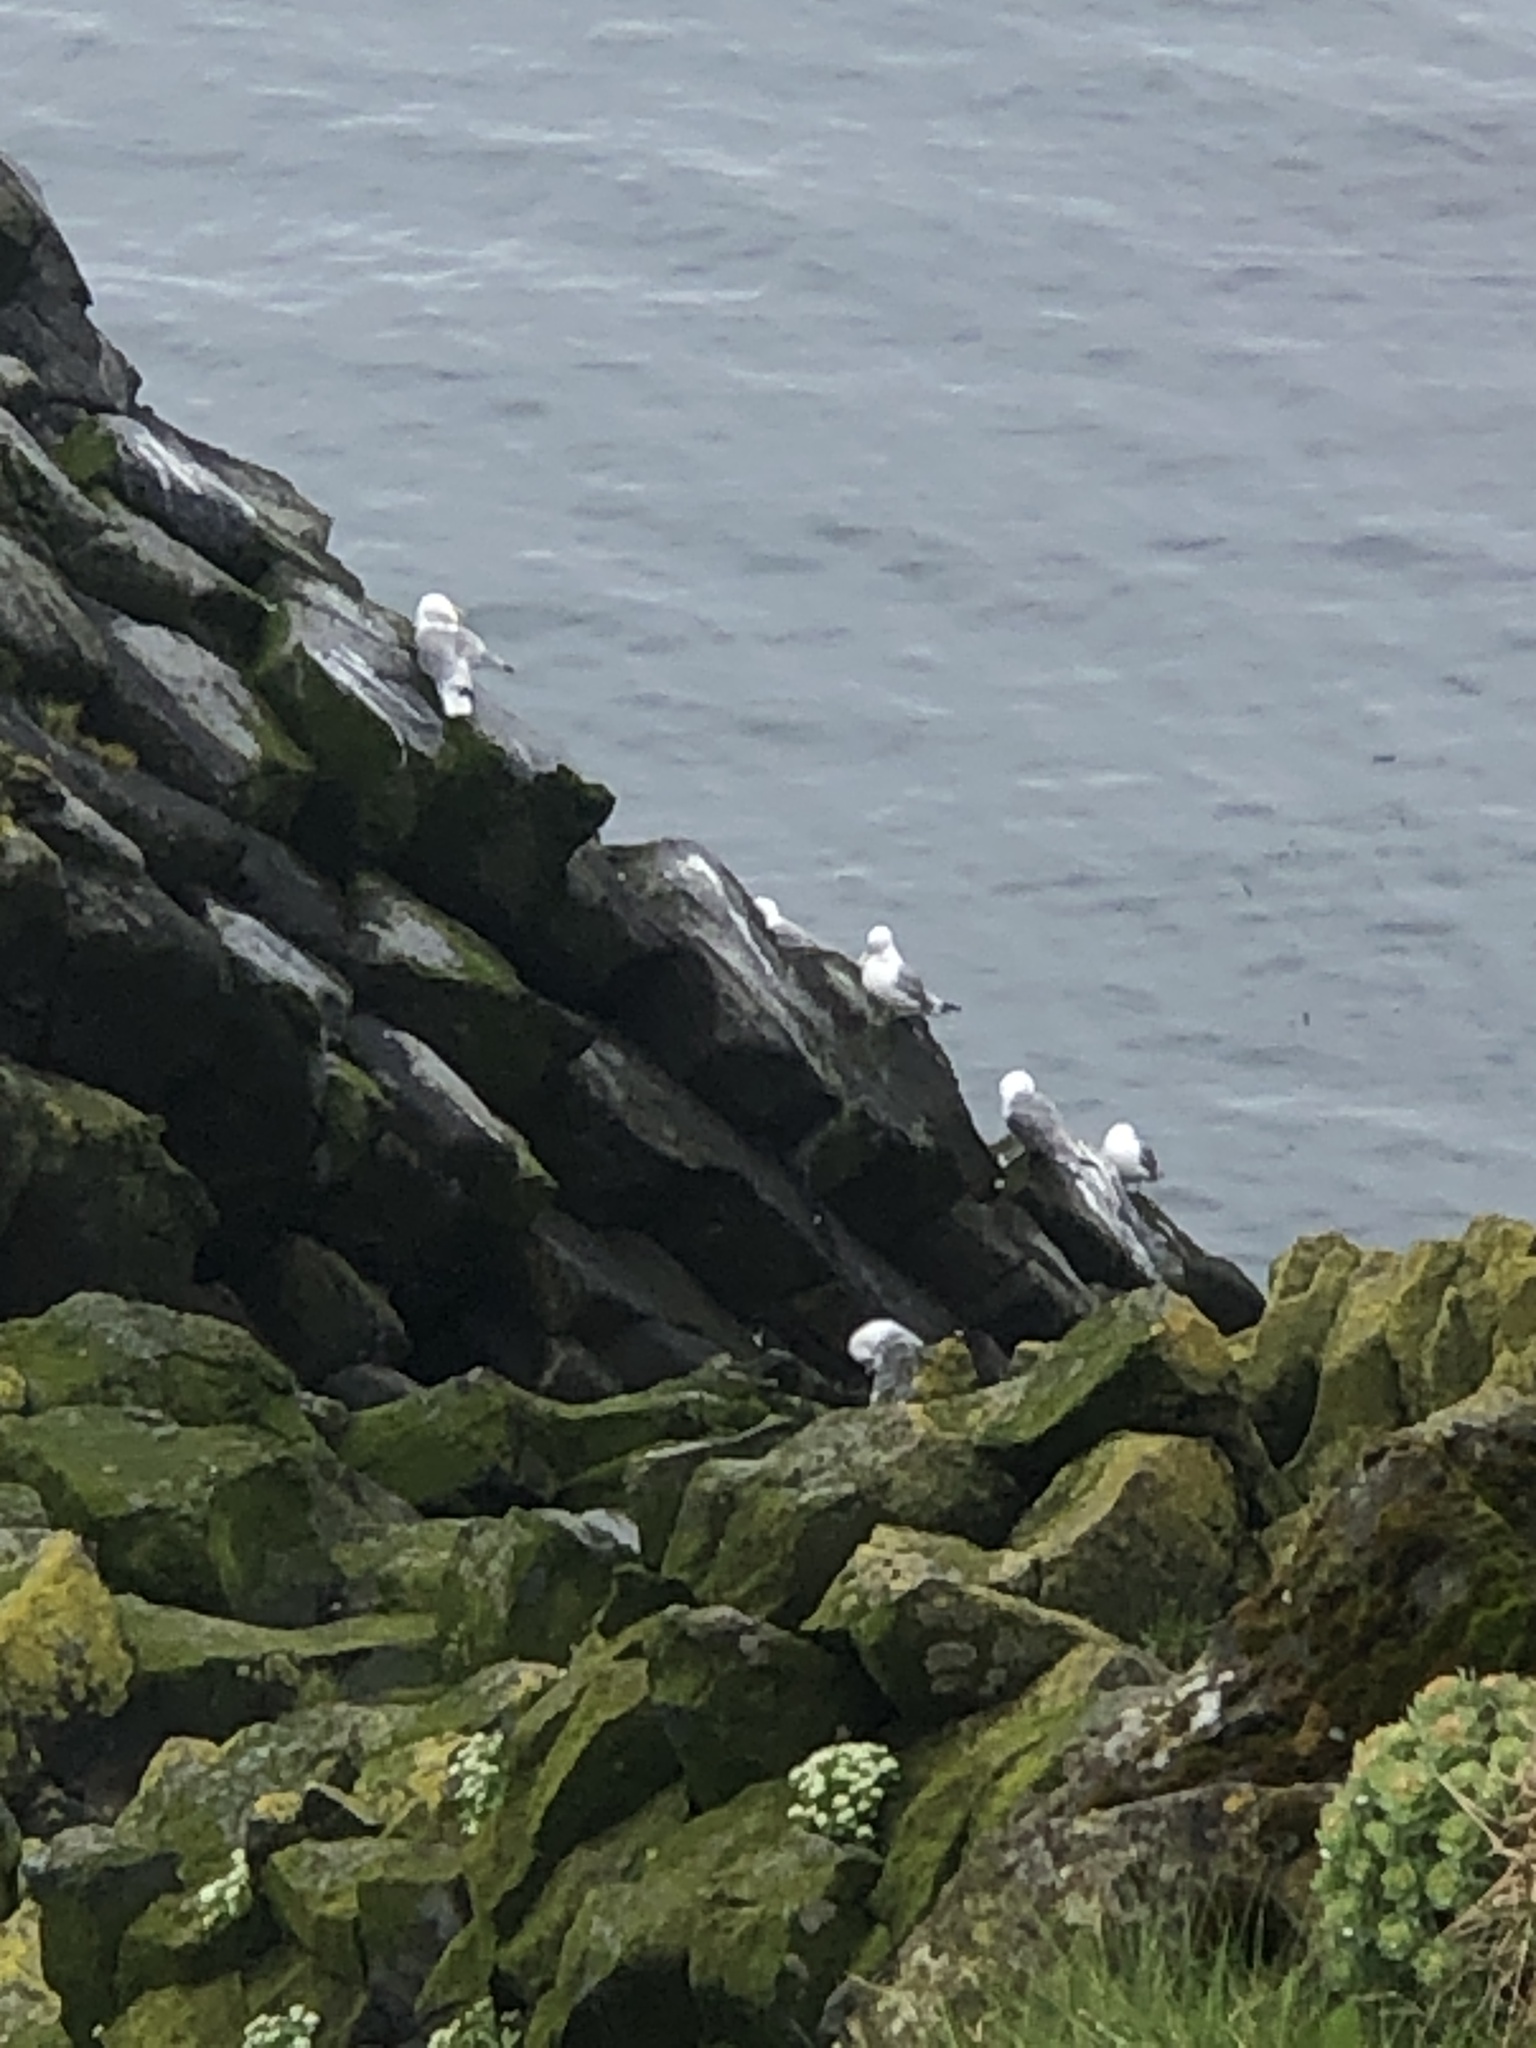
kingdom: Animalia
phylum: Chordata
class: Aves
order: Charadriiformes
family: Laridae
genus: Rissa
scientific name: Rissa tridactyla
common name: Black-legged kittiwake
